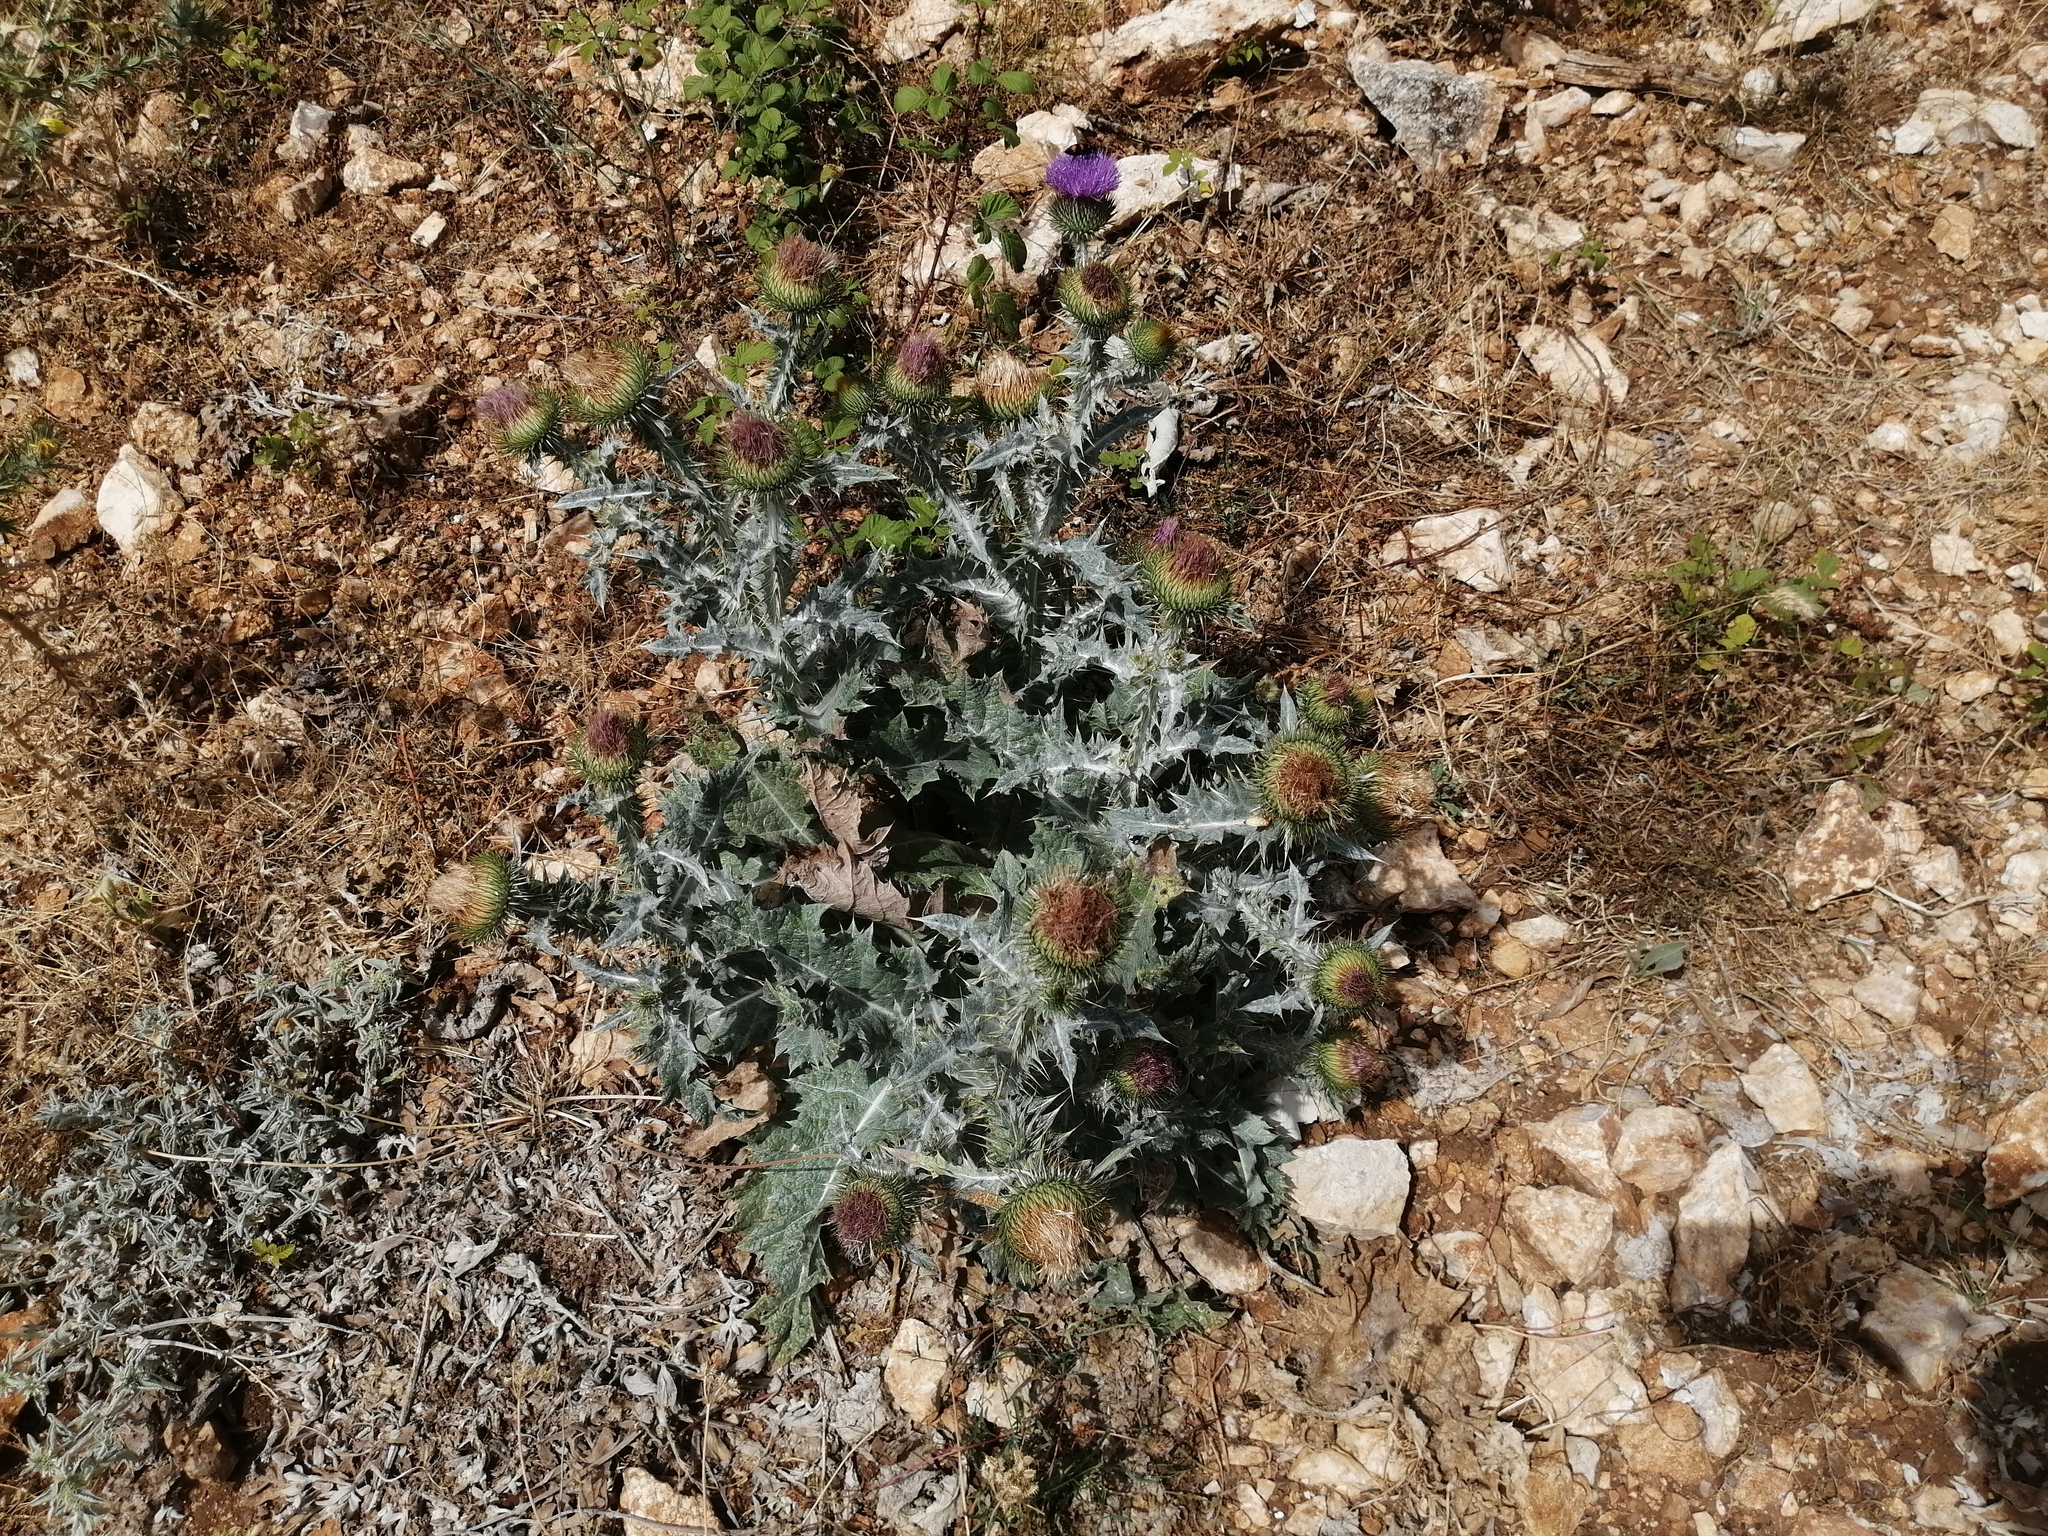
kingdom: Plantae
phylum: Tracheophyta
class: Magnoliopsida
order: Asterales
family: Asteraceae
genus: Onopordum
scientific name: Onopordum acanthium
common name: Scotch thistle
